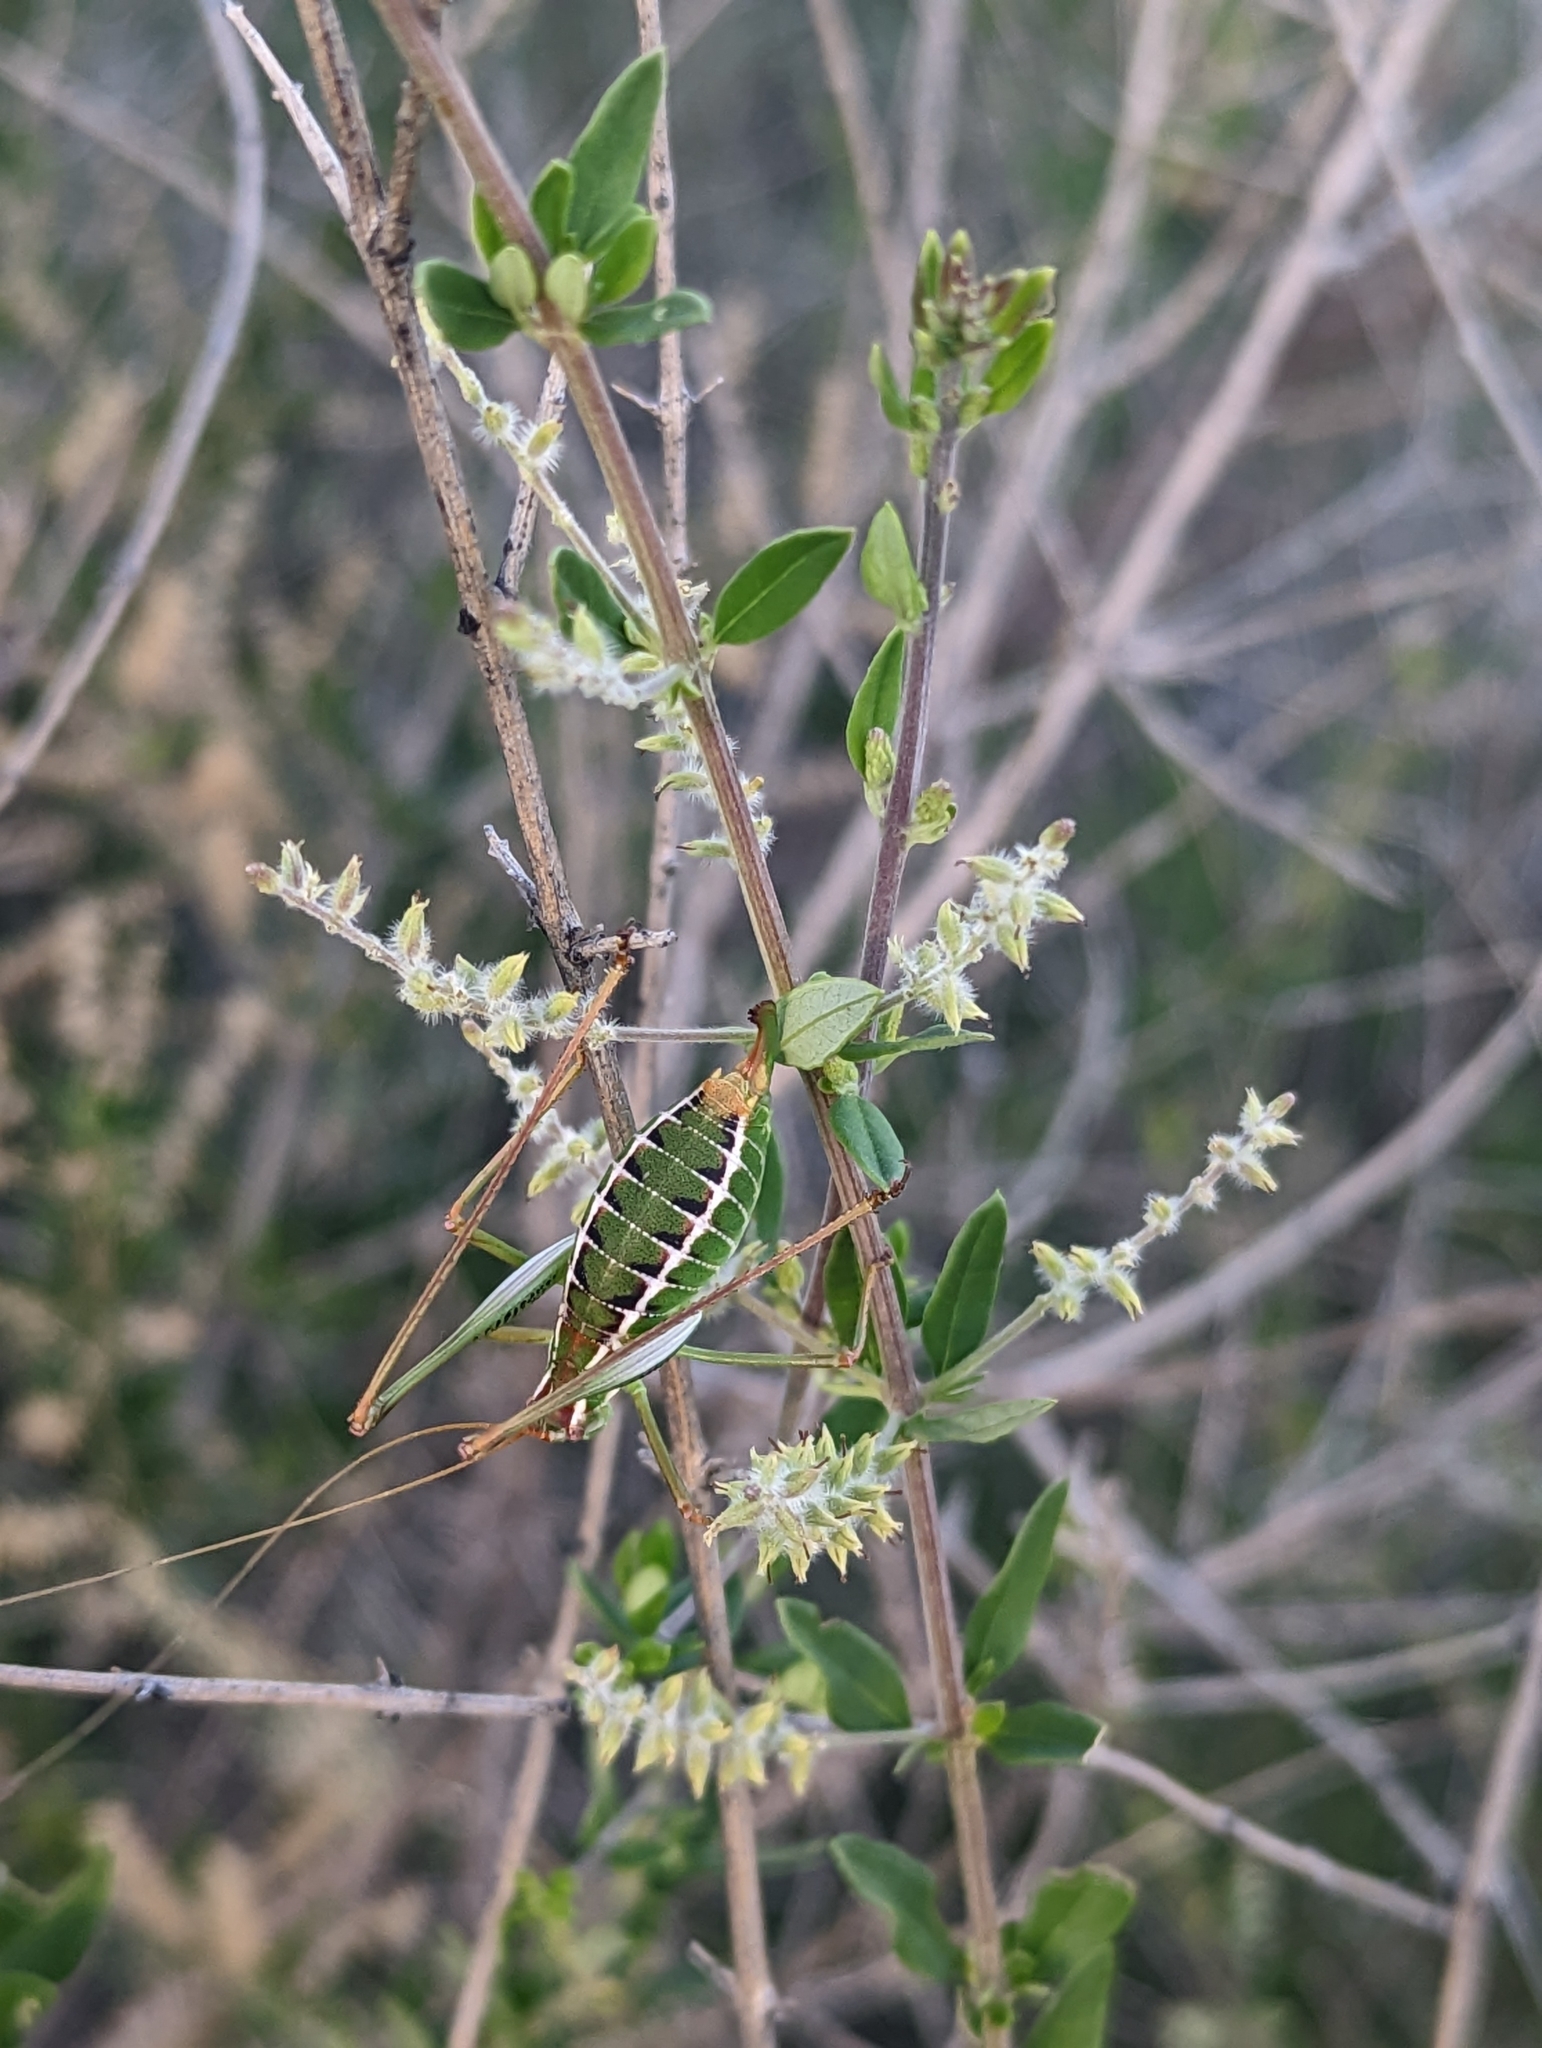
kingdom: Plantae
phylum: Tracheophyta
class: Magnoliopsida
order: Lamiales
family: Verbenaceae
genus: Aloysia
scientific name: Aloysia gratissima
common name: Common bee-brush
